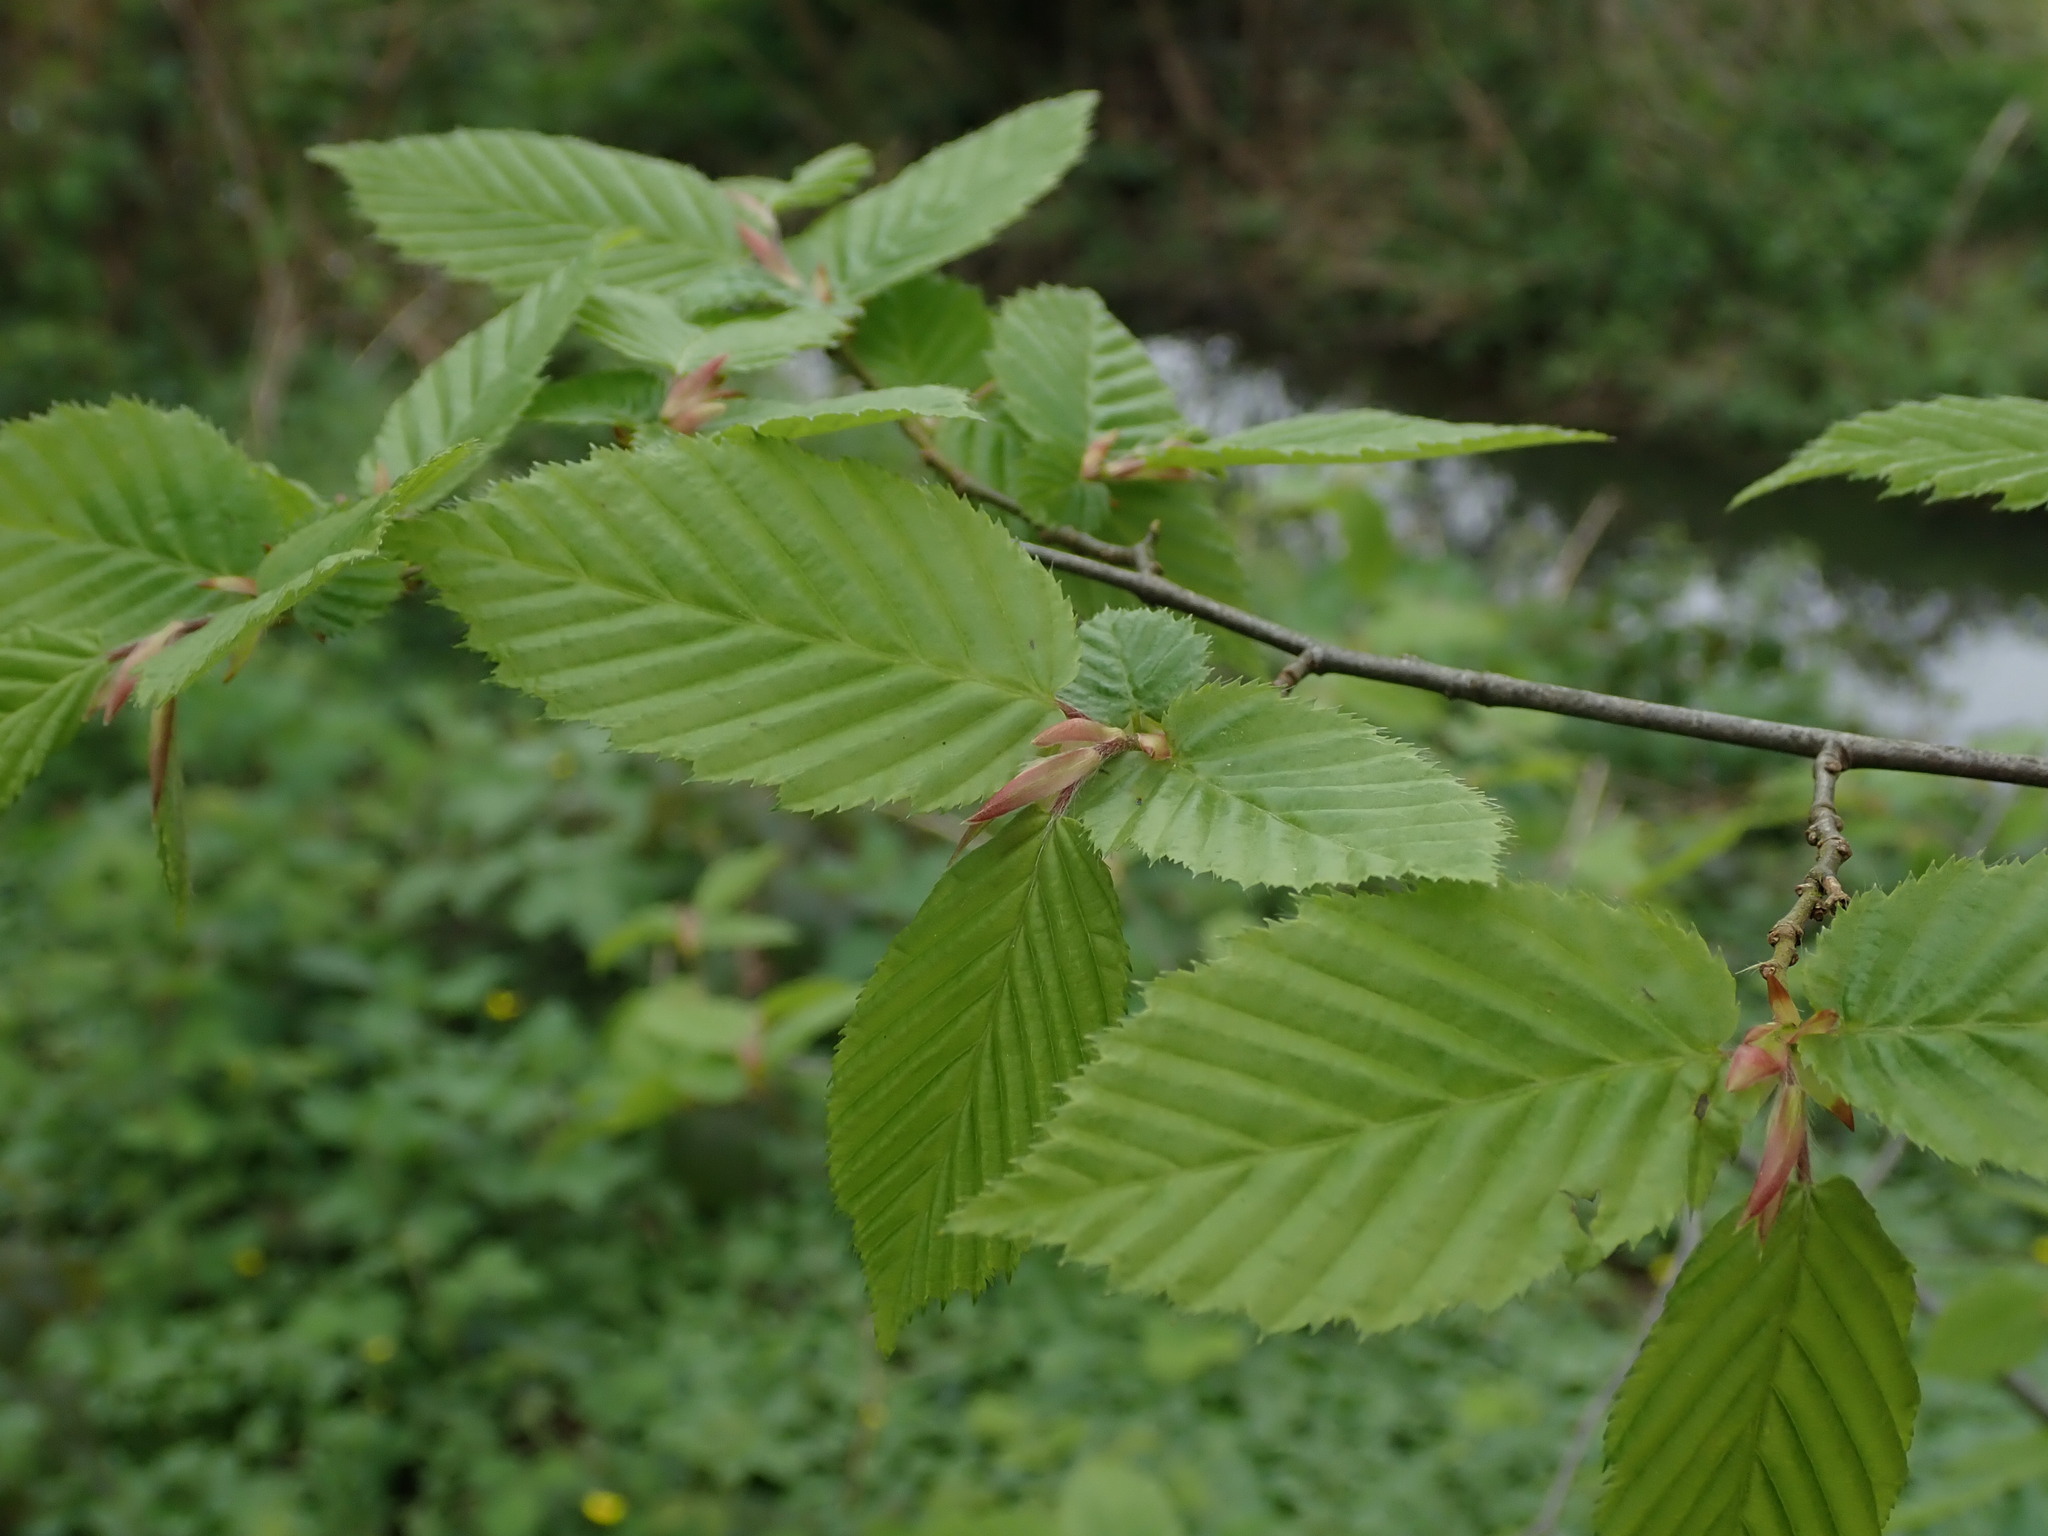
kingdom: Plantae
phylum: Tracheophyta
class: Magnoliopsida
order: Fagales
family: Betulaceae
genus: Carpinus
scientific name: Carpinus betulus
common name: Hornbeam
